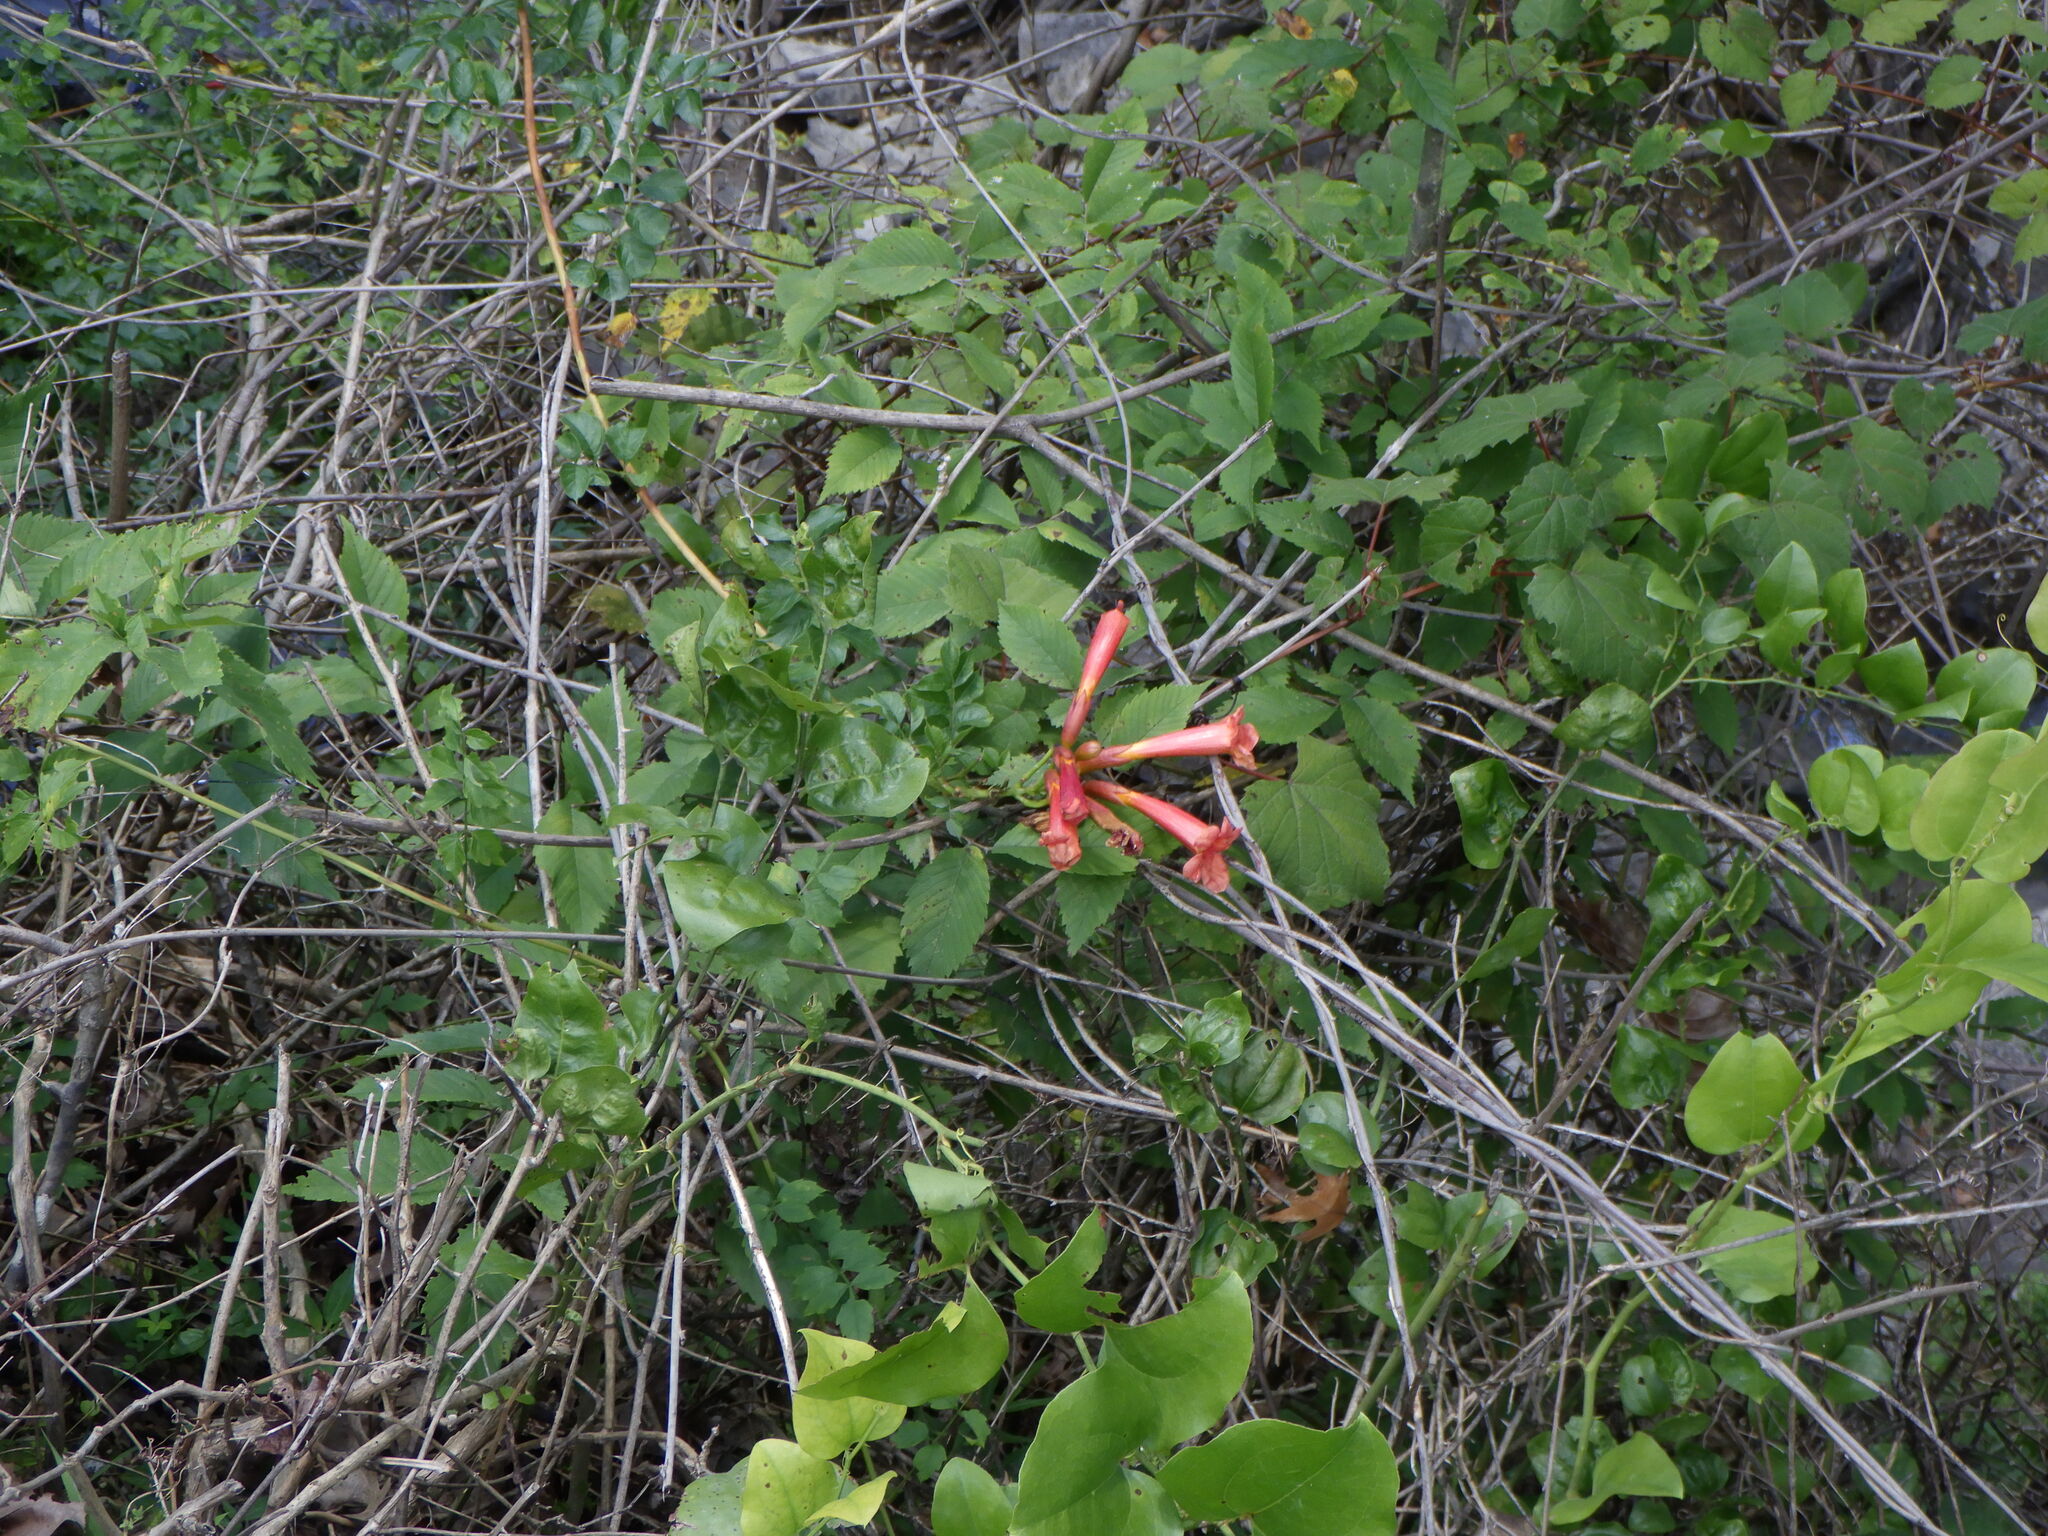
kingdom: Plantae
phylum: Tracheophyta
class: Magnoliopsida
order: Lamiales
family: Bignoniaceae
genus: Campsis
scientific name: Campsis radicans
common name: Trumpet-creeper
